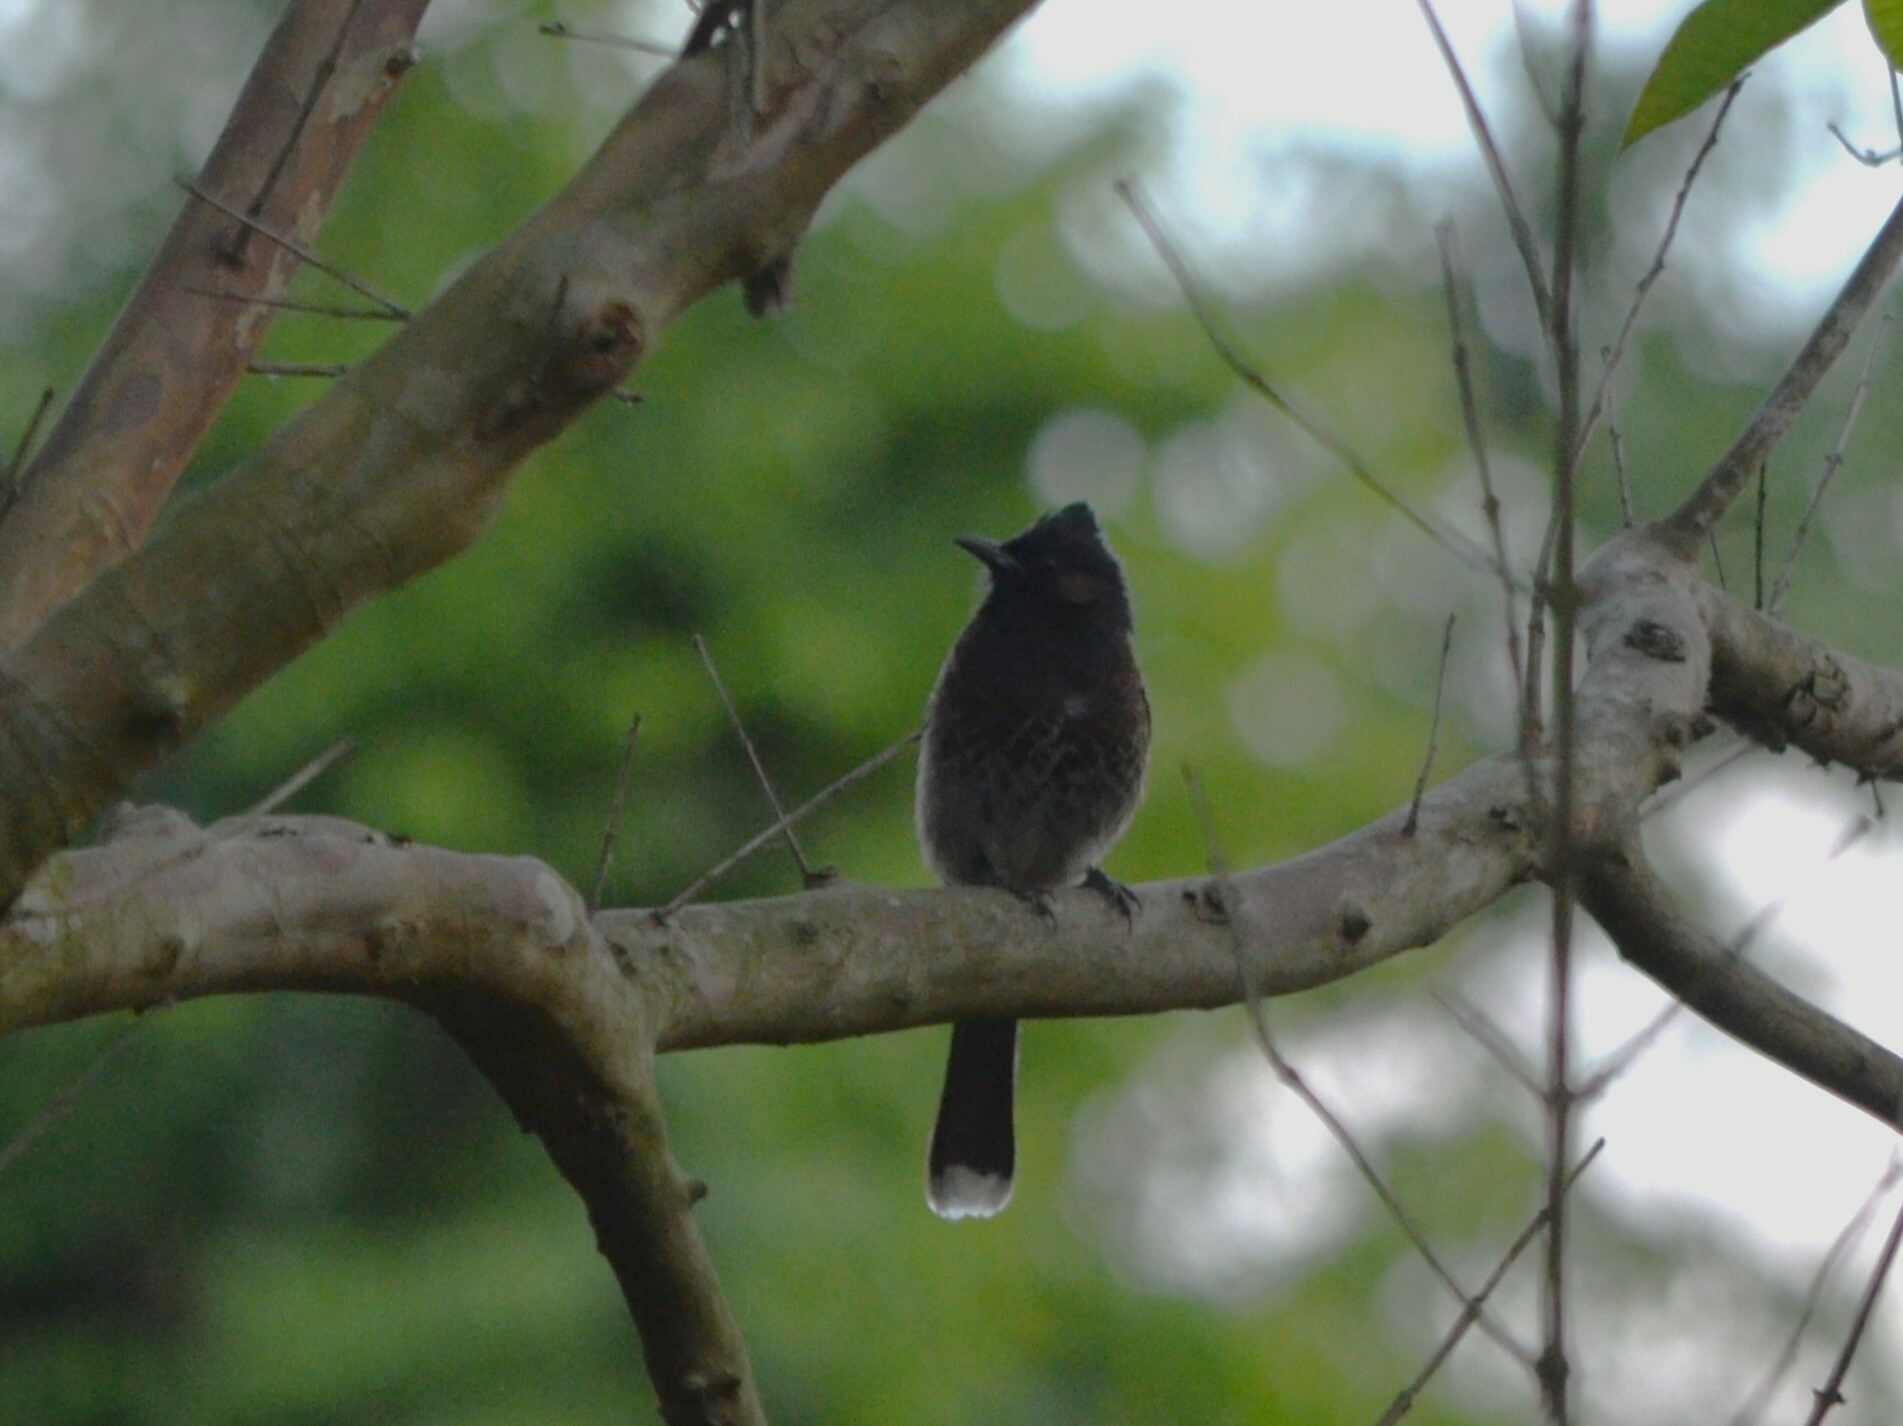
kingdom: Animalia
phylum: Chordata
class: Aves
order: Passeriformes
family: Pycnonotidae
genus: Pycnonotus
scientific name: Pycnonotus cafer
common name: Red-vented bulbul
